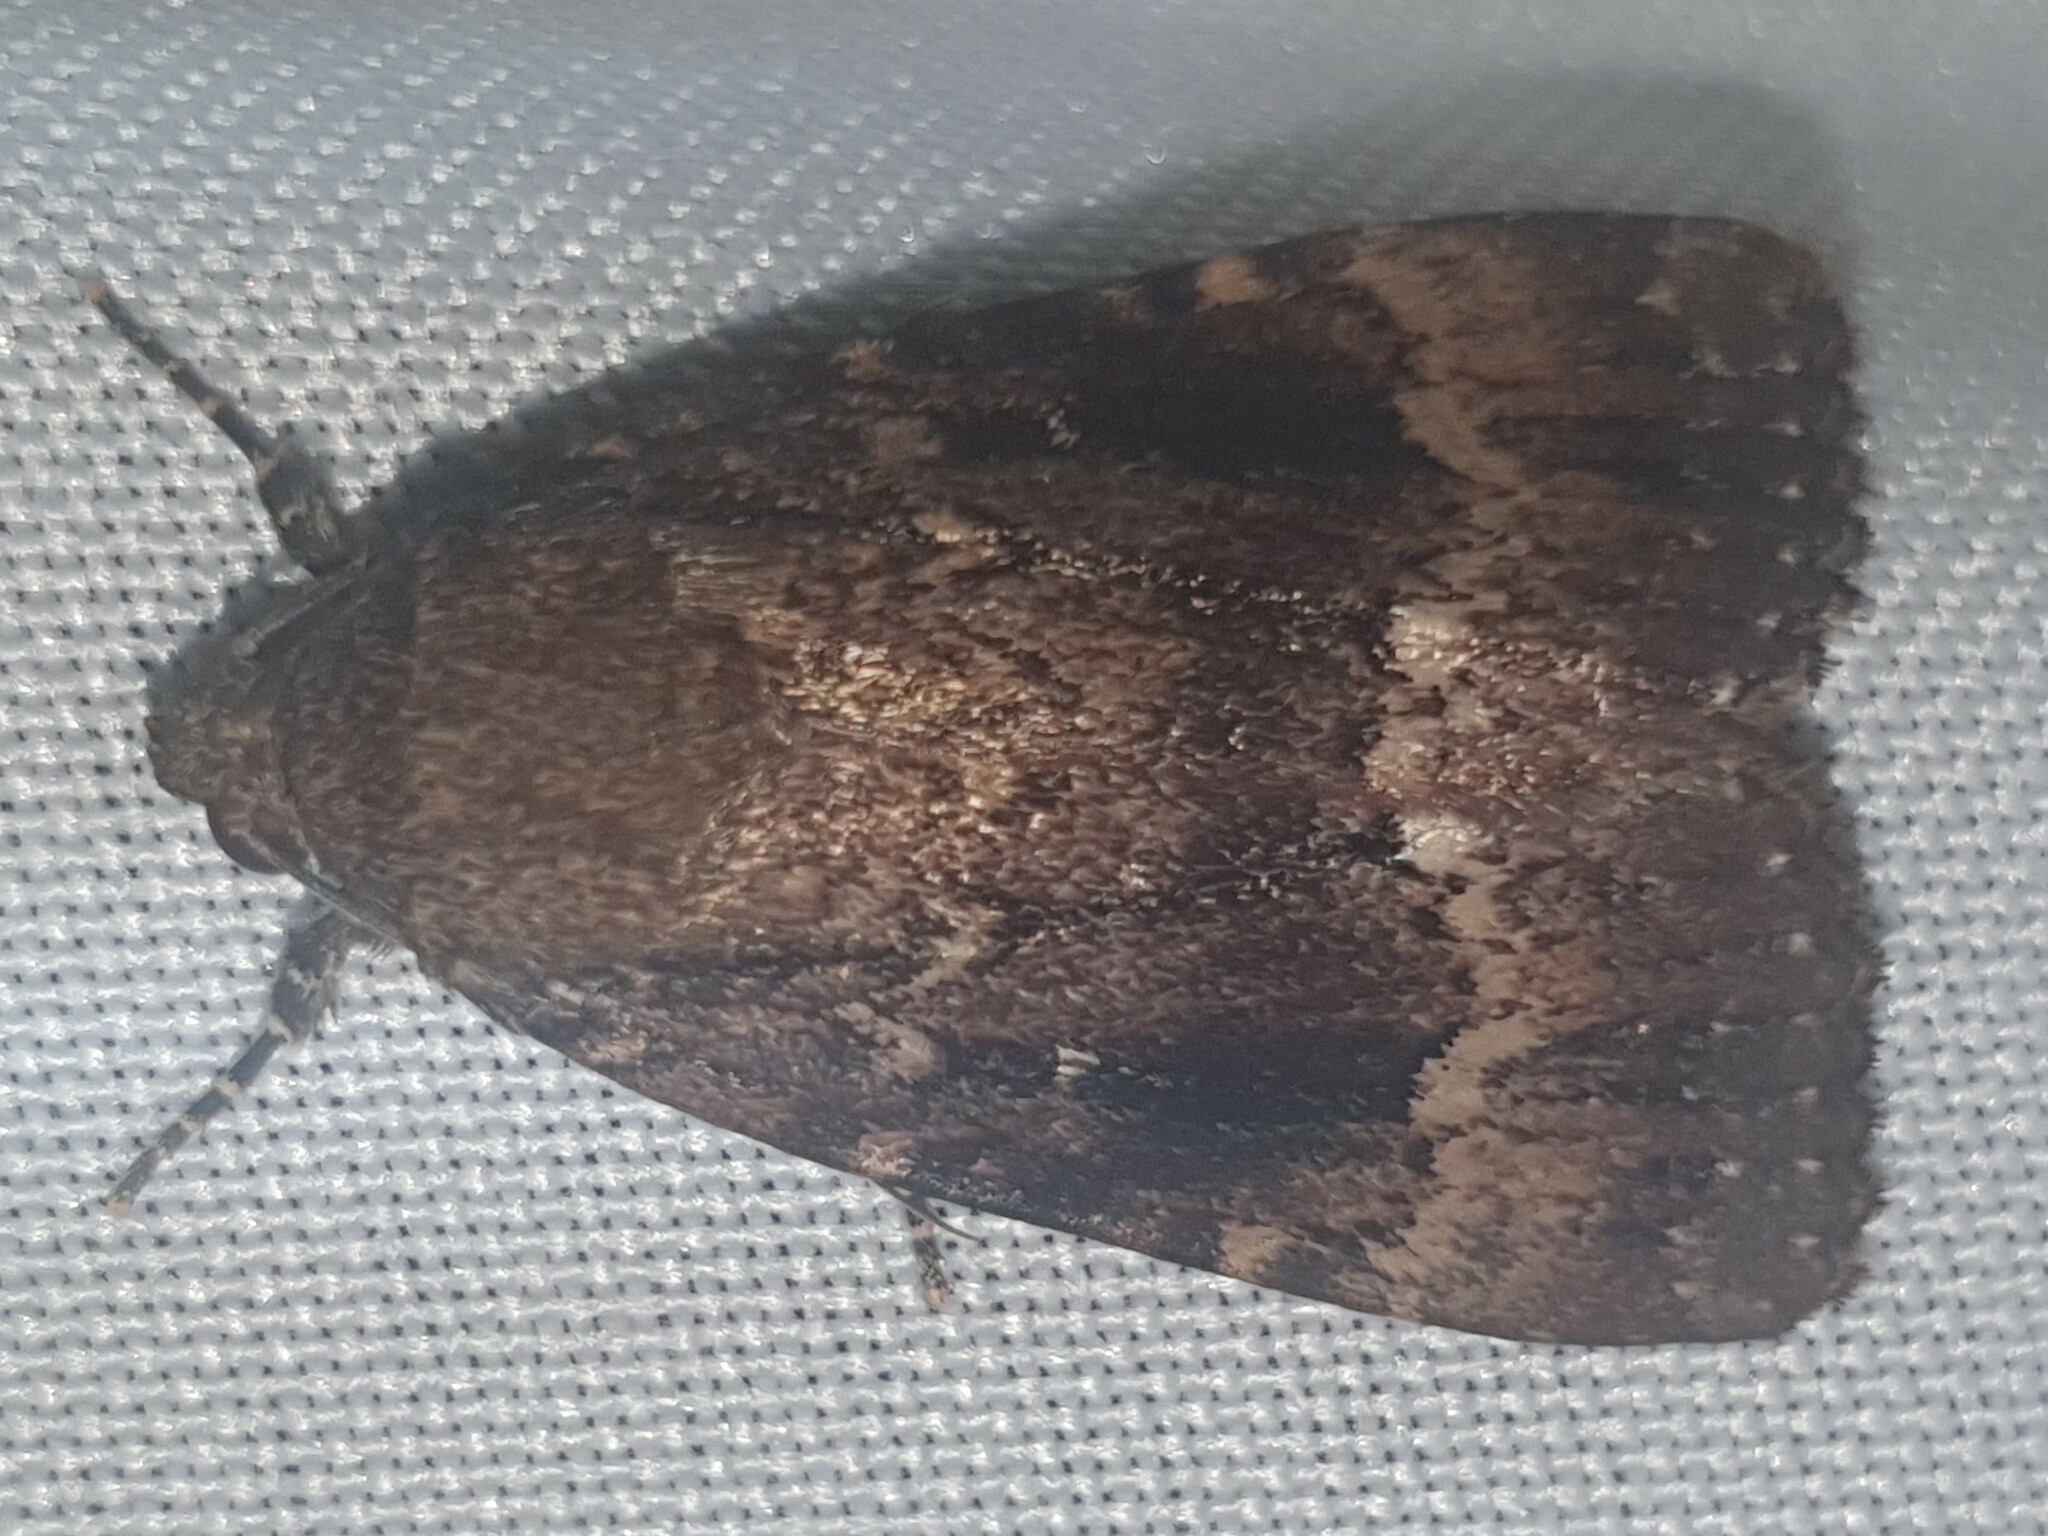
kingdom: Animalia
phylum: Arthropoda
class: Insecta
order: Lepidoptera
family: Noctuidae
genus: Amphipyra
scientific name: Amphipyra pyramidea
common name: Copper underwing
